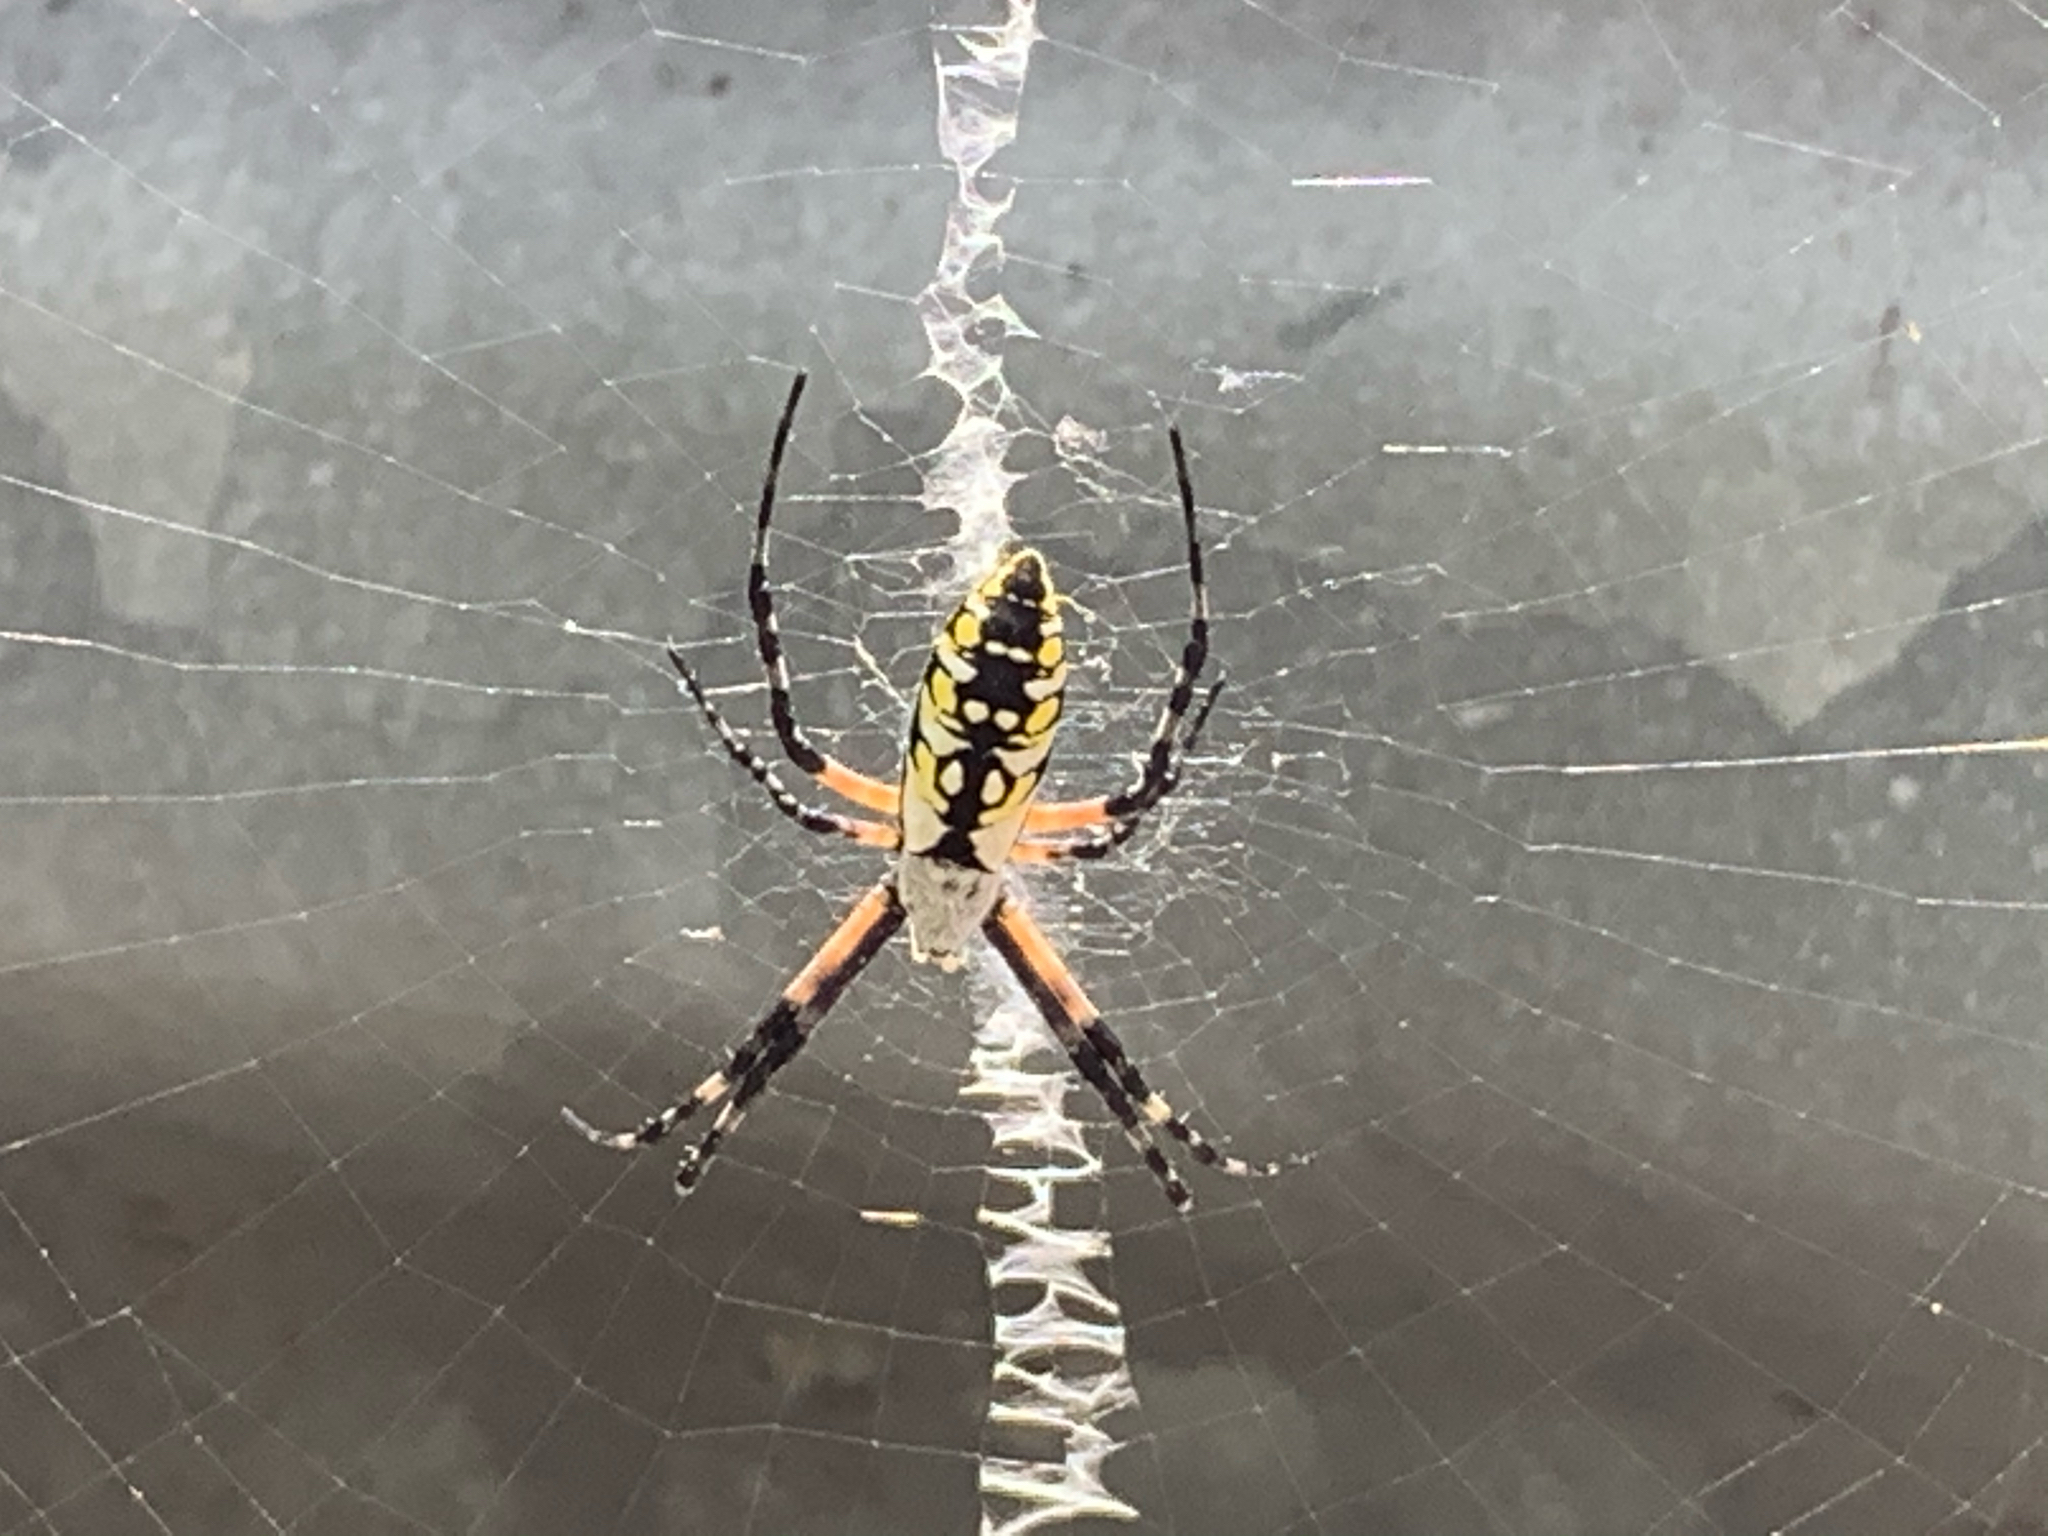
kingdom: Animalia
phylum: Arthropoda
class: Arachnida
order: Araneae
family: Araneidae
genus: Argiope
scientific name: Argiope aurantia
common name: Orb weavers
